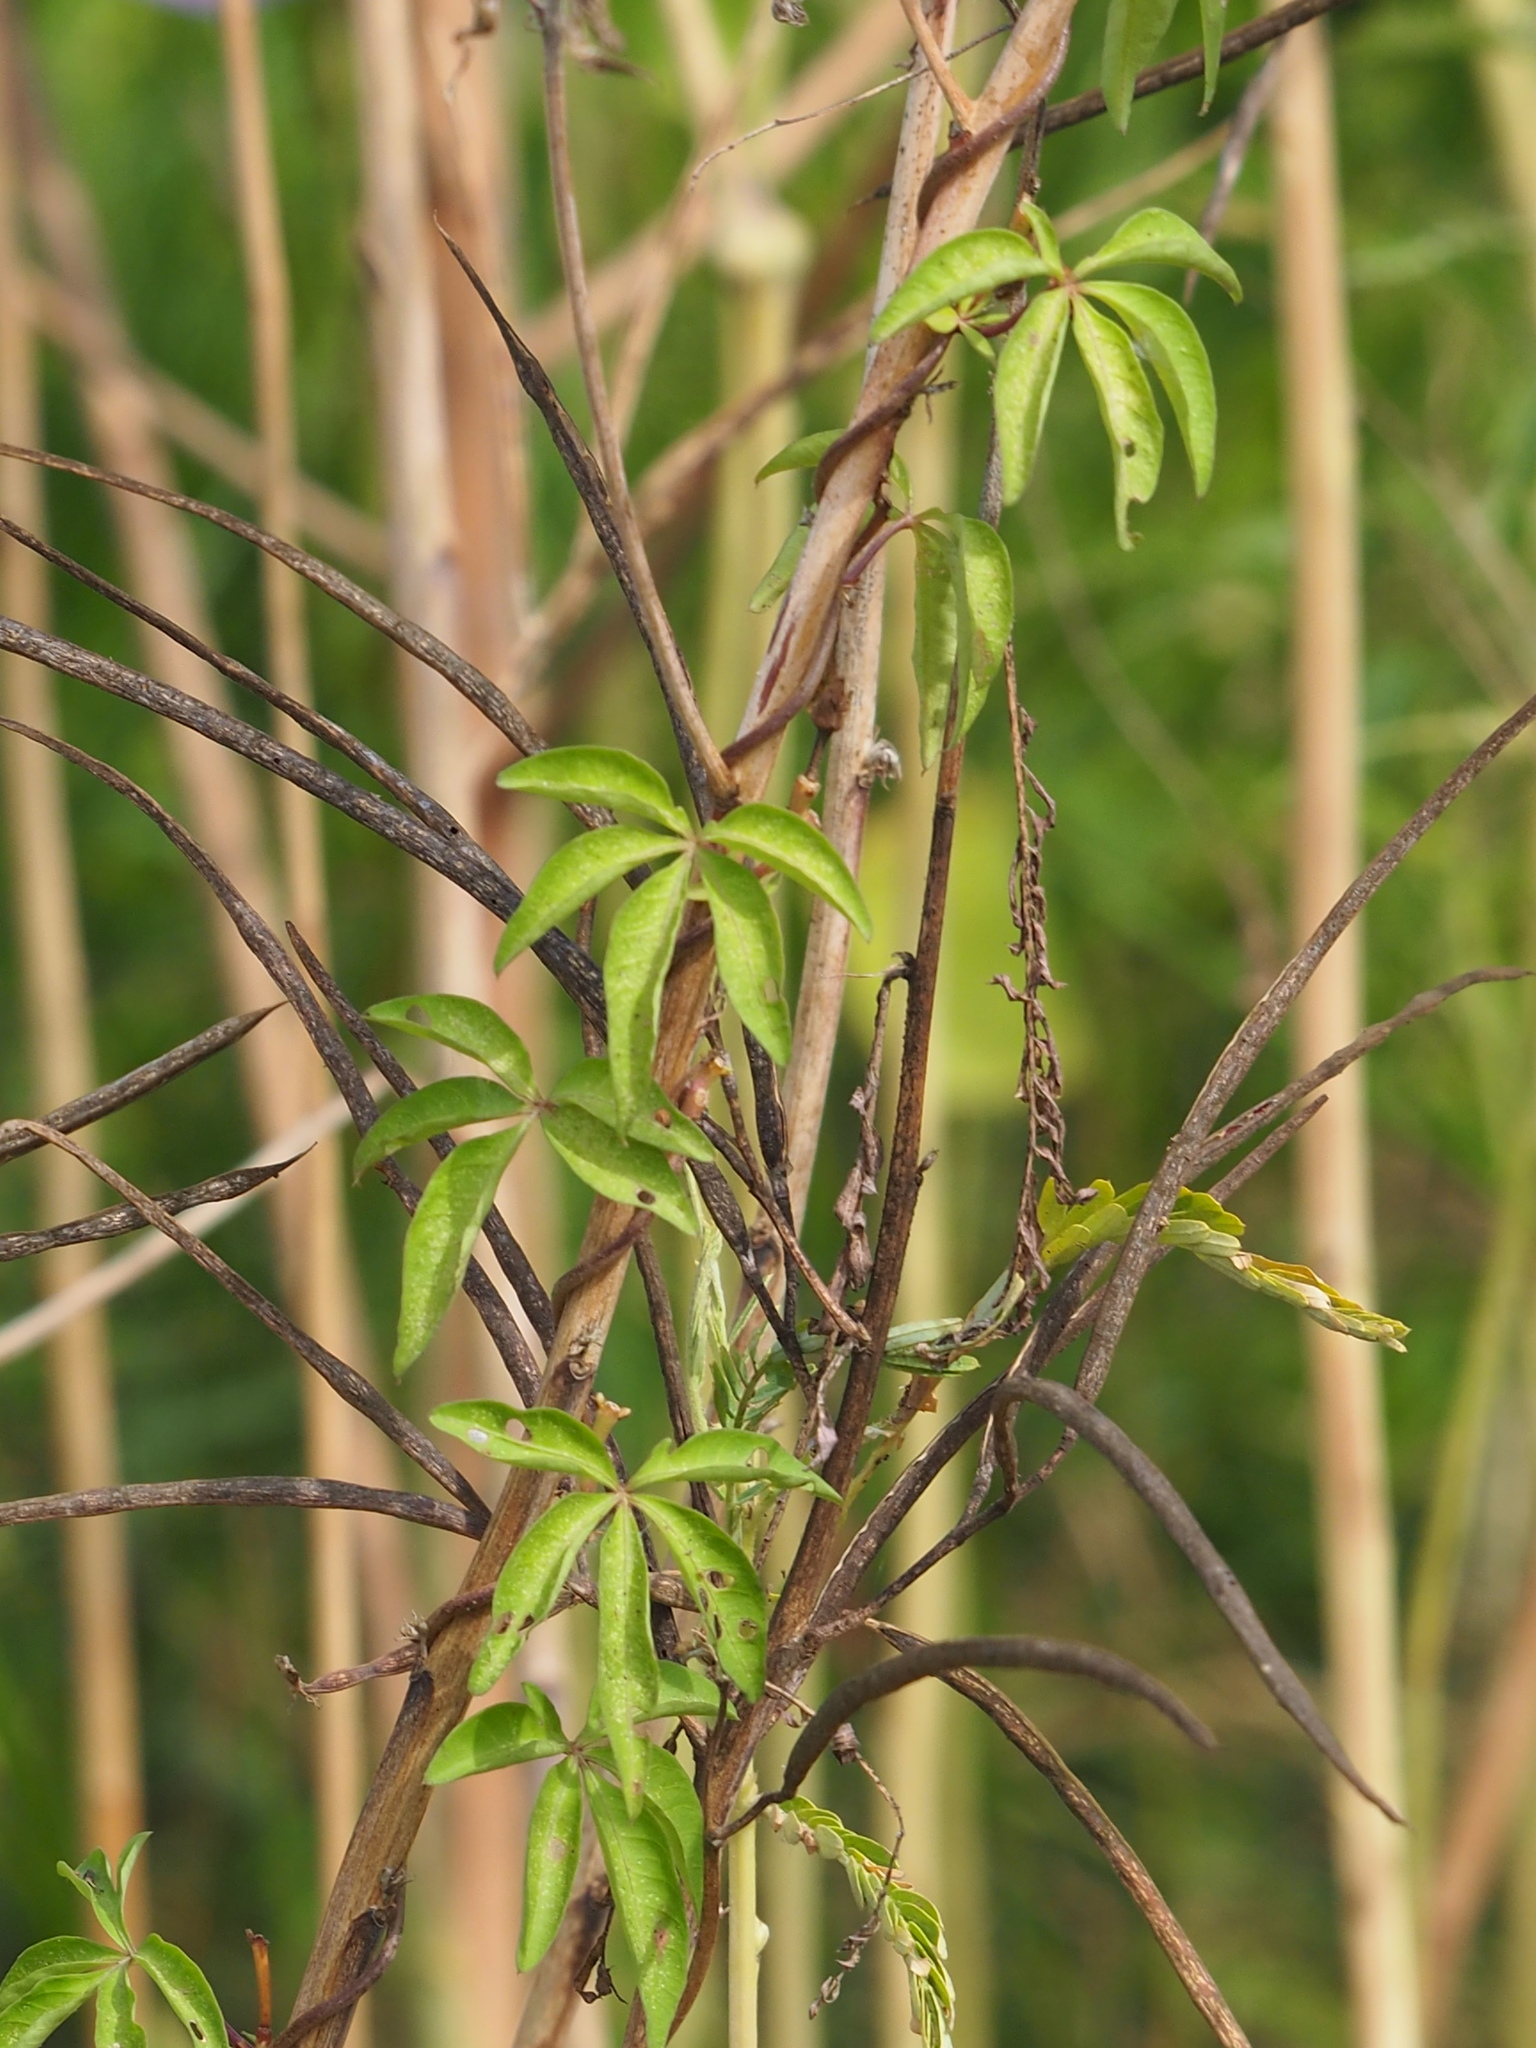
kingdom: Plantae
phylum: Tracheophyta
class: Magnoliopsida
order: Solanales
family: Convolvulaceae
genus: Ipomoea
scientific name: Ipomoea cairica
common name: Mile a minute vine
